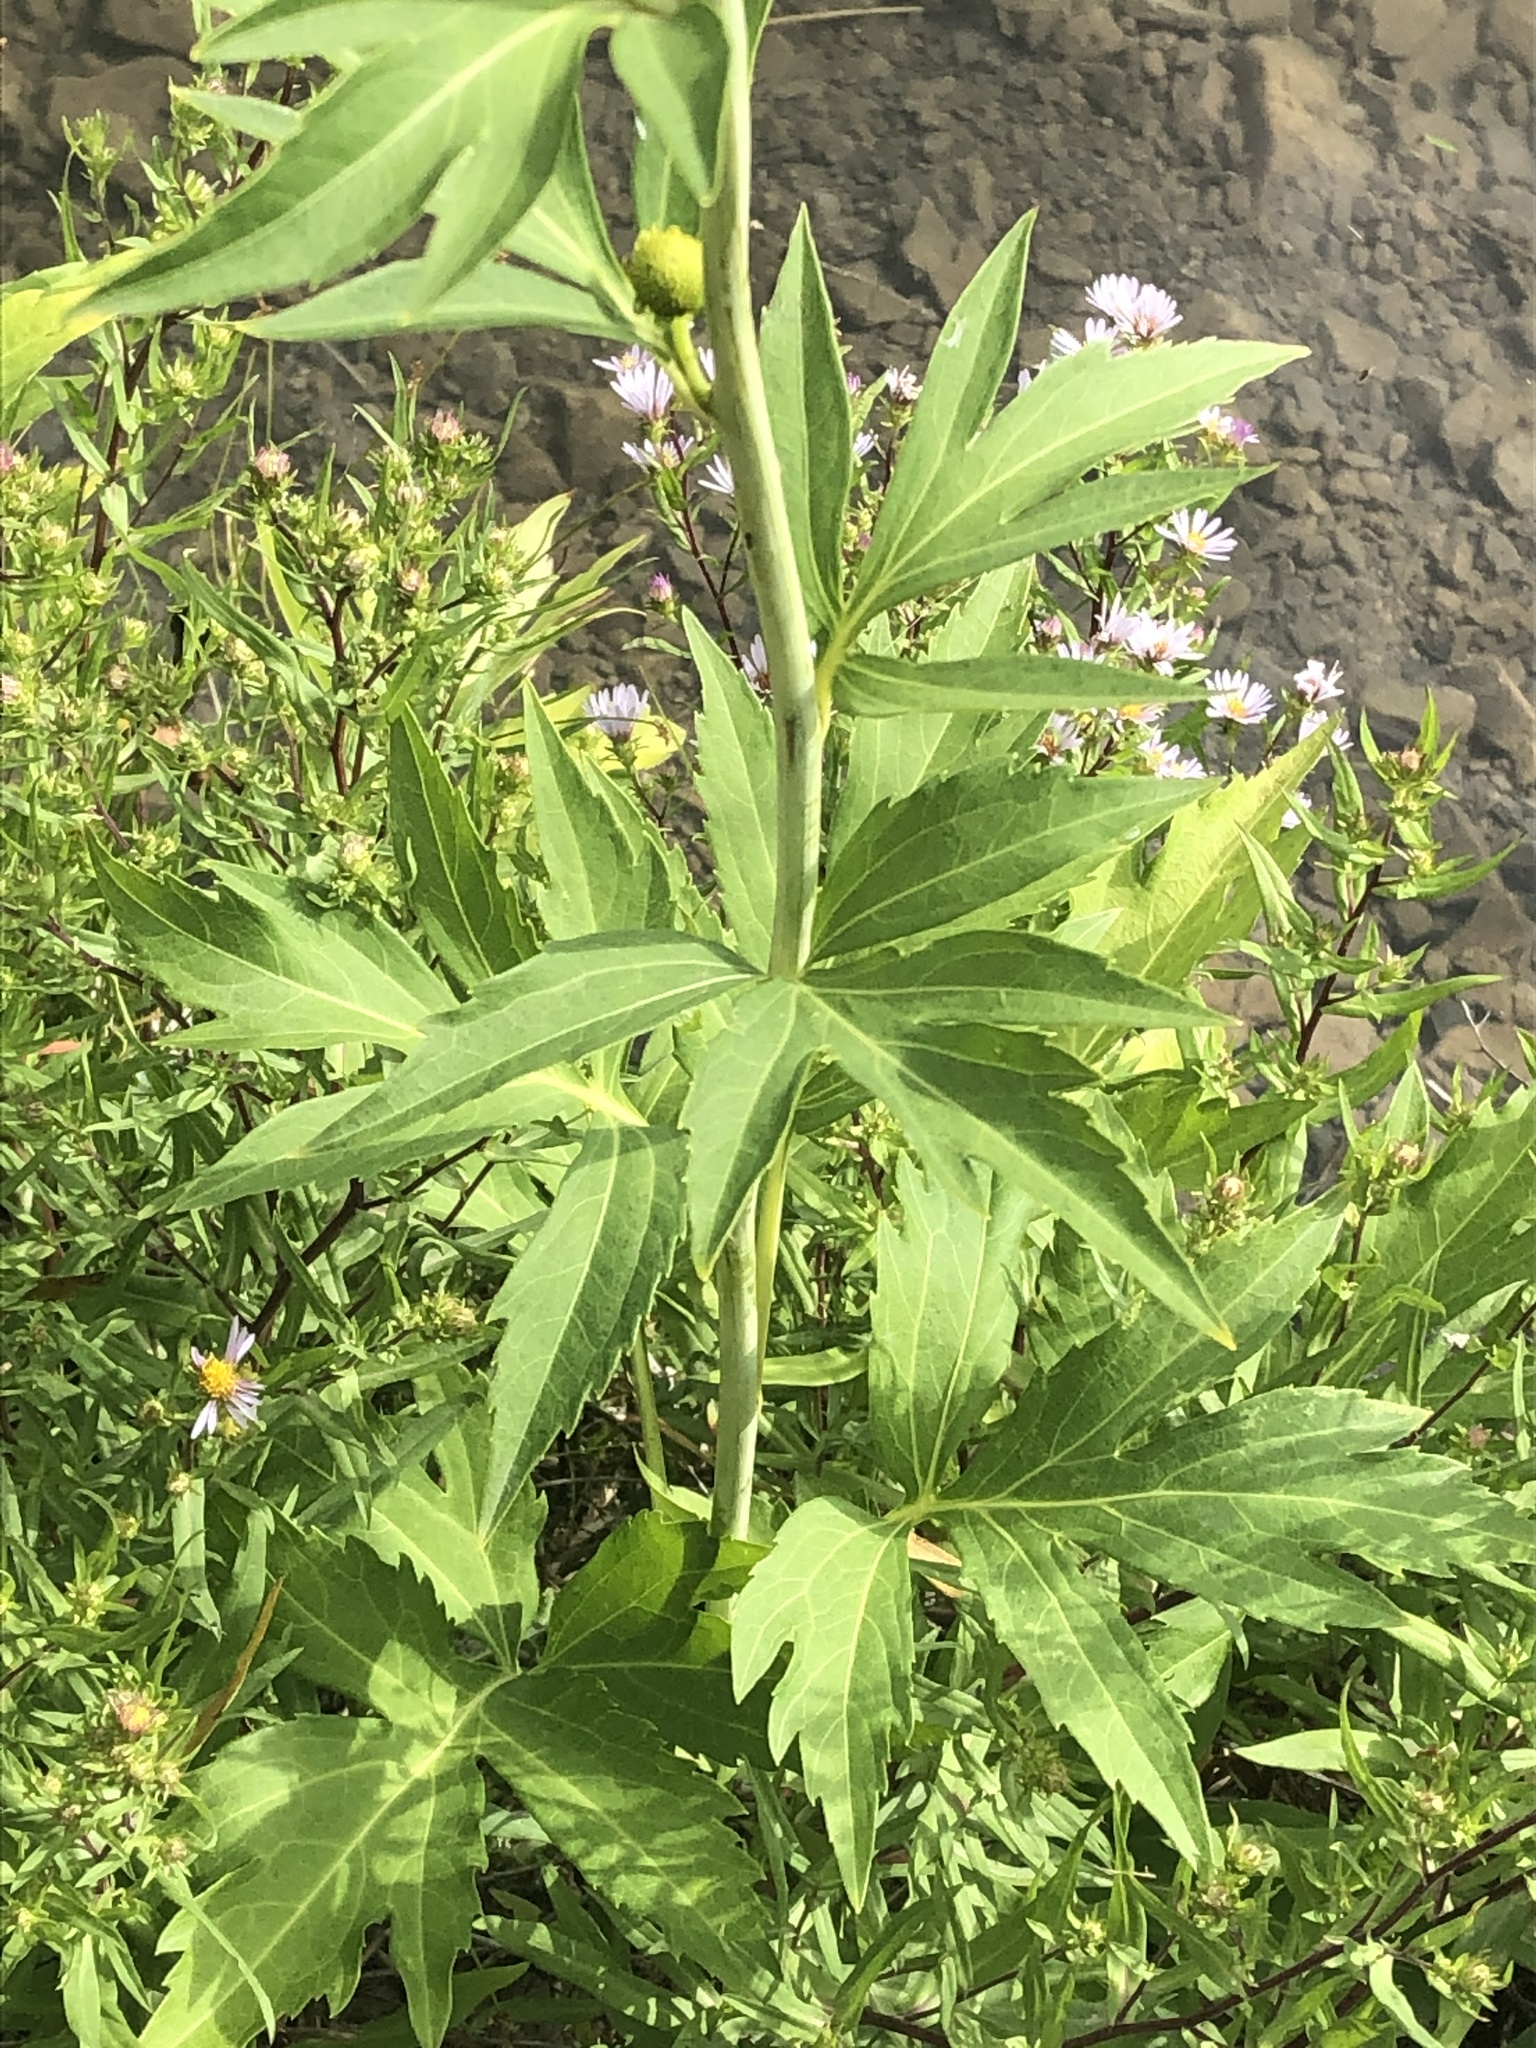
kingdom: Plantae
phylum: Tracheophyta
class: Magnoliopsida
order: Asterales
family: Asteraceae
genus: Rudbeckia
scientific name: Rudbeckia laciniata
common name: Coneflower
